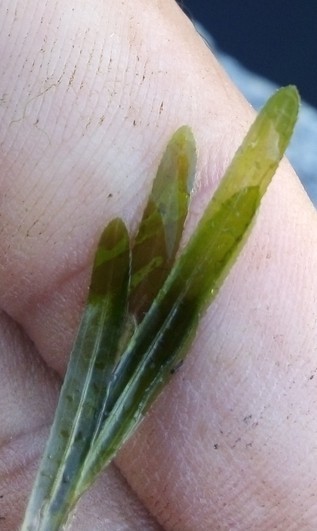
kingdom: Plantae
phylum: Tracheophyta
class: Liliopsida
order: Alismatales
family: Potamogetonaceae
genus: Potamogeton
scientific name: Potamogeton crispus
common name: Curled pondweed
